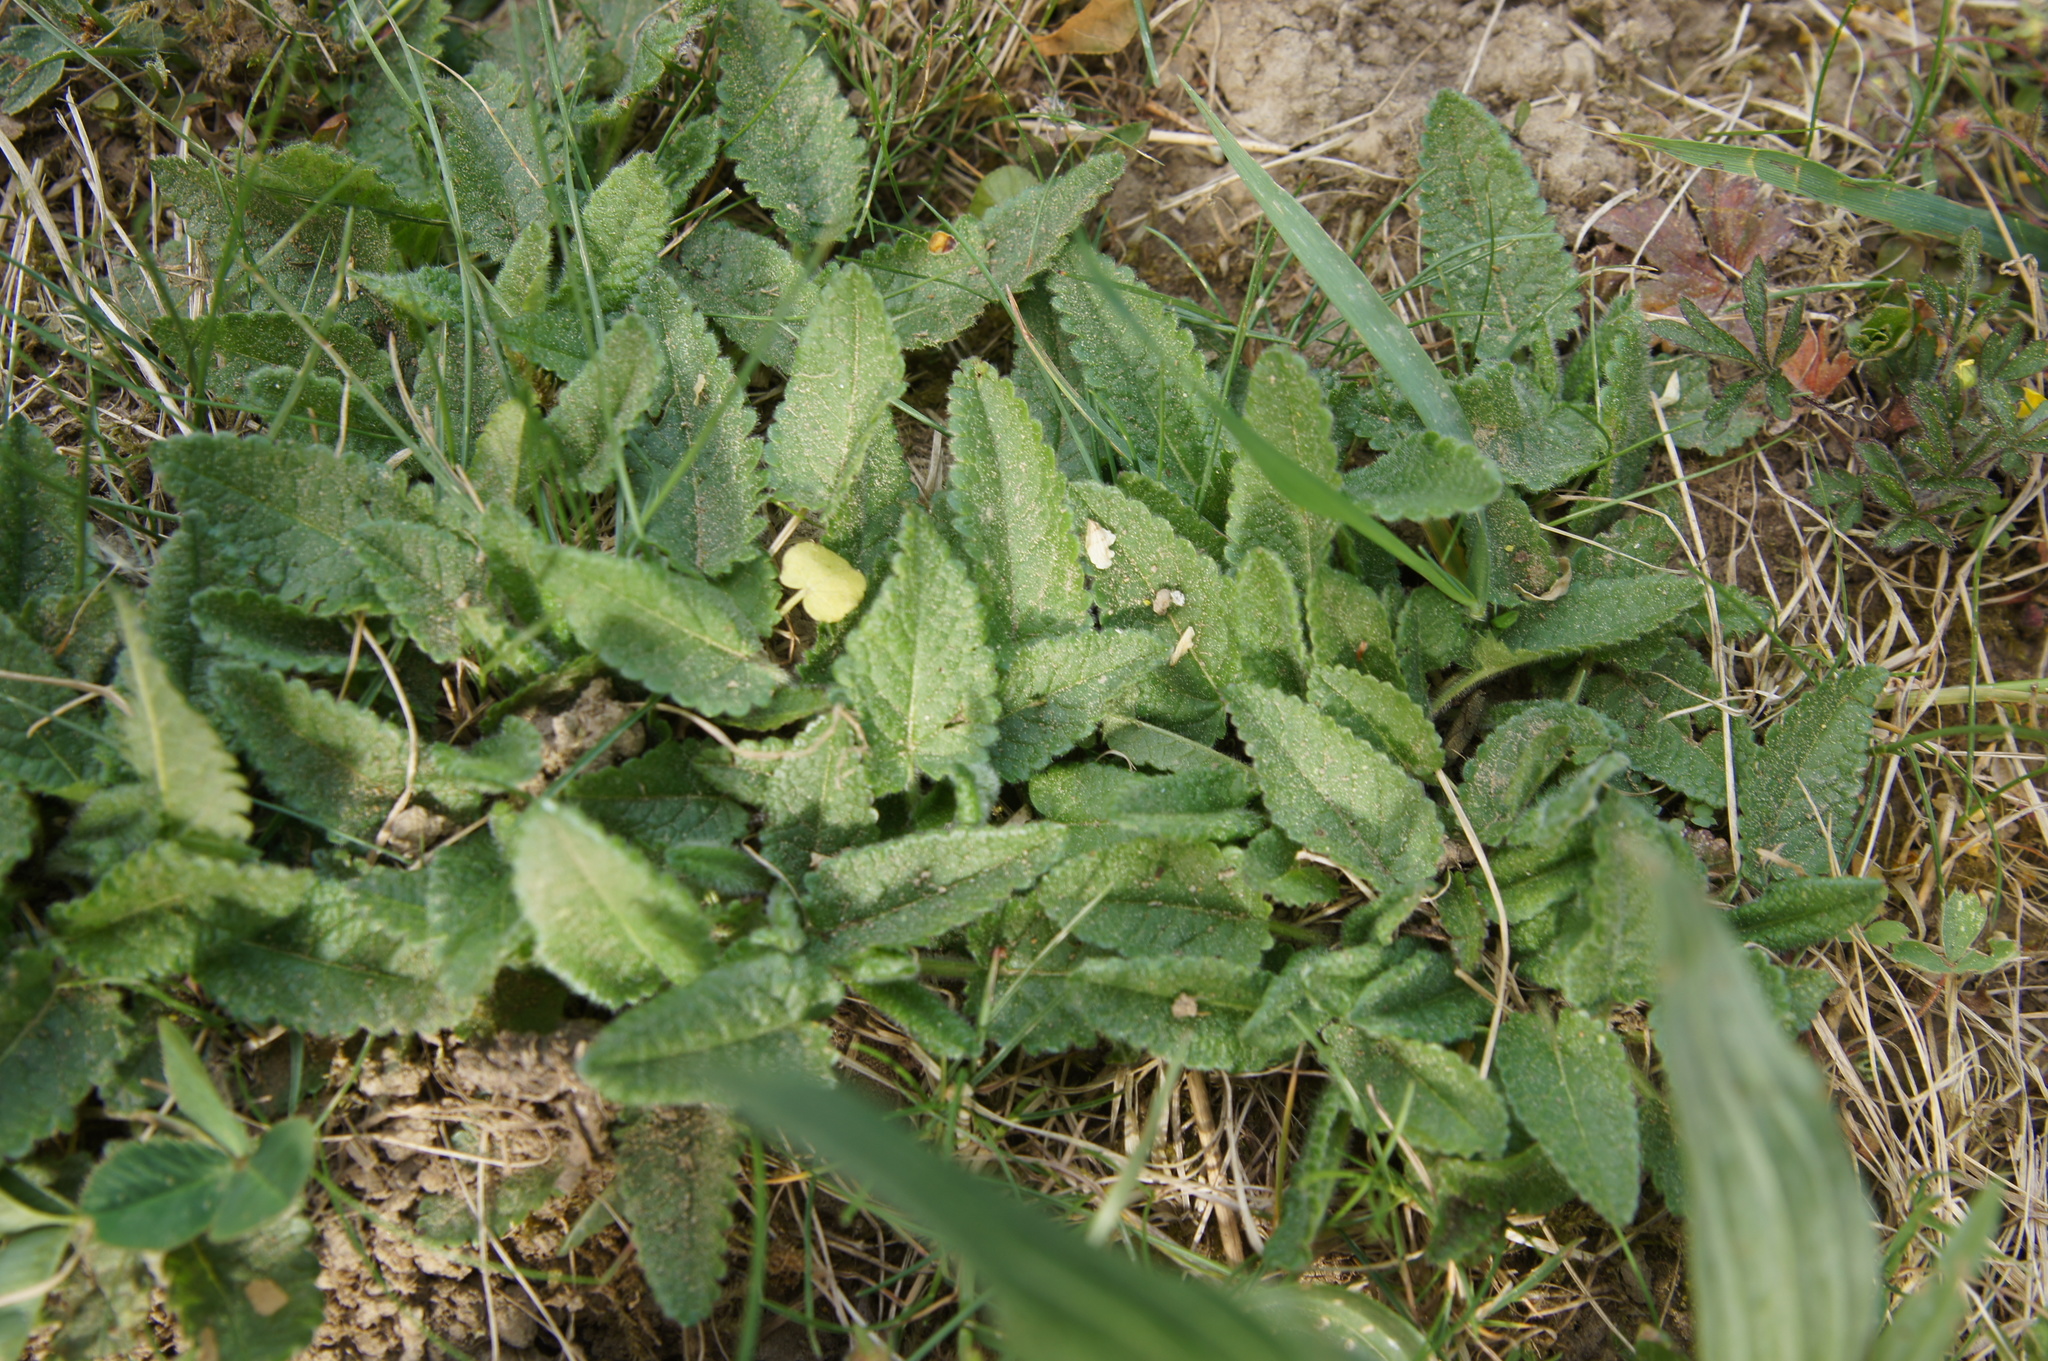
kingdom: Plantae
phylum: Tracheophyta
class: Magnoliopsida
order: Lamiales
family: Lamiaceae
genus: Betonica
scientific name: Betonica officinalis
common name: Bishop's-wort
